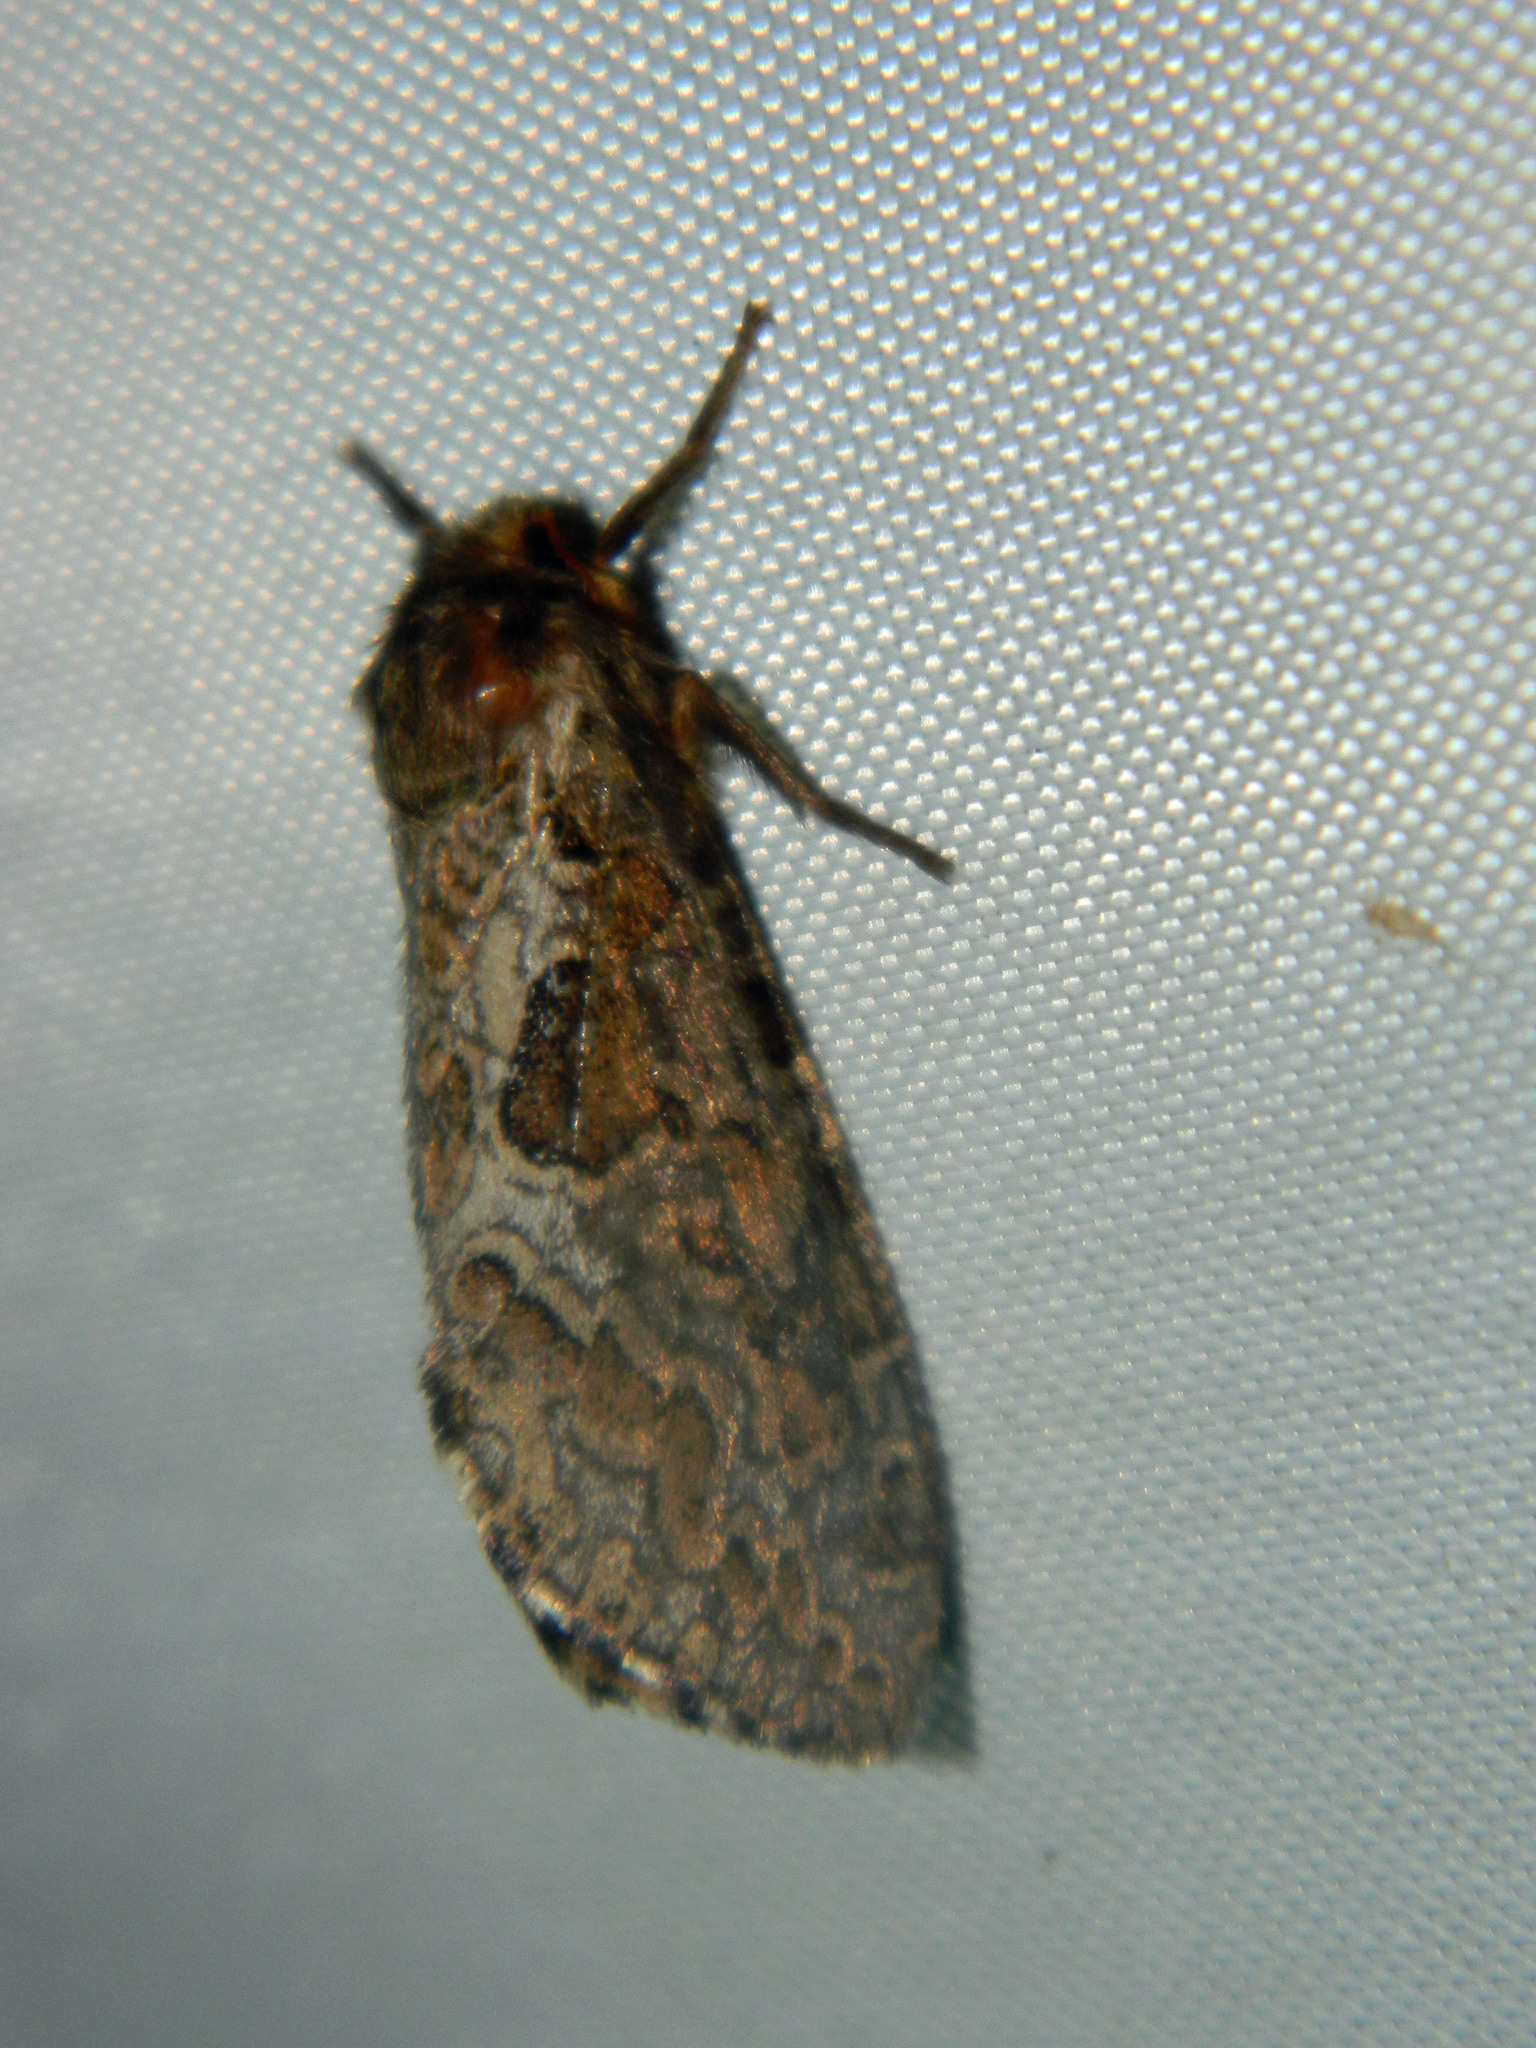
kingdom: Animalia
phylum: Arthropoda
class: Insecta
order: Lepidoptera
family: Hepialidae
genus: Korscheltellus
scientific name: Korscheltellus gracilis
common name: Conifer swift moth
